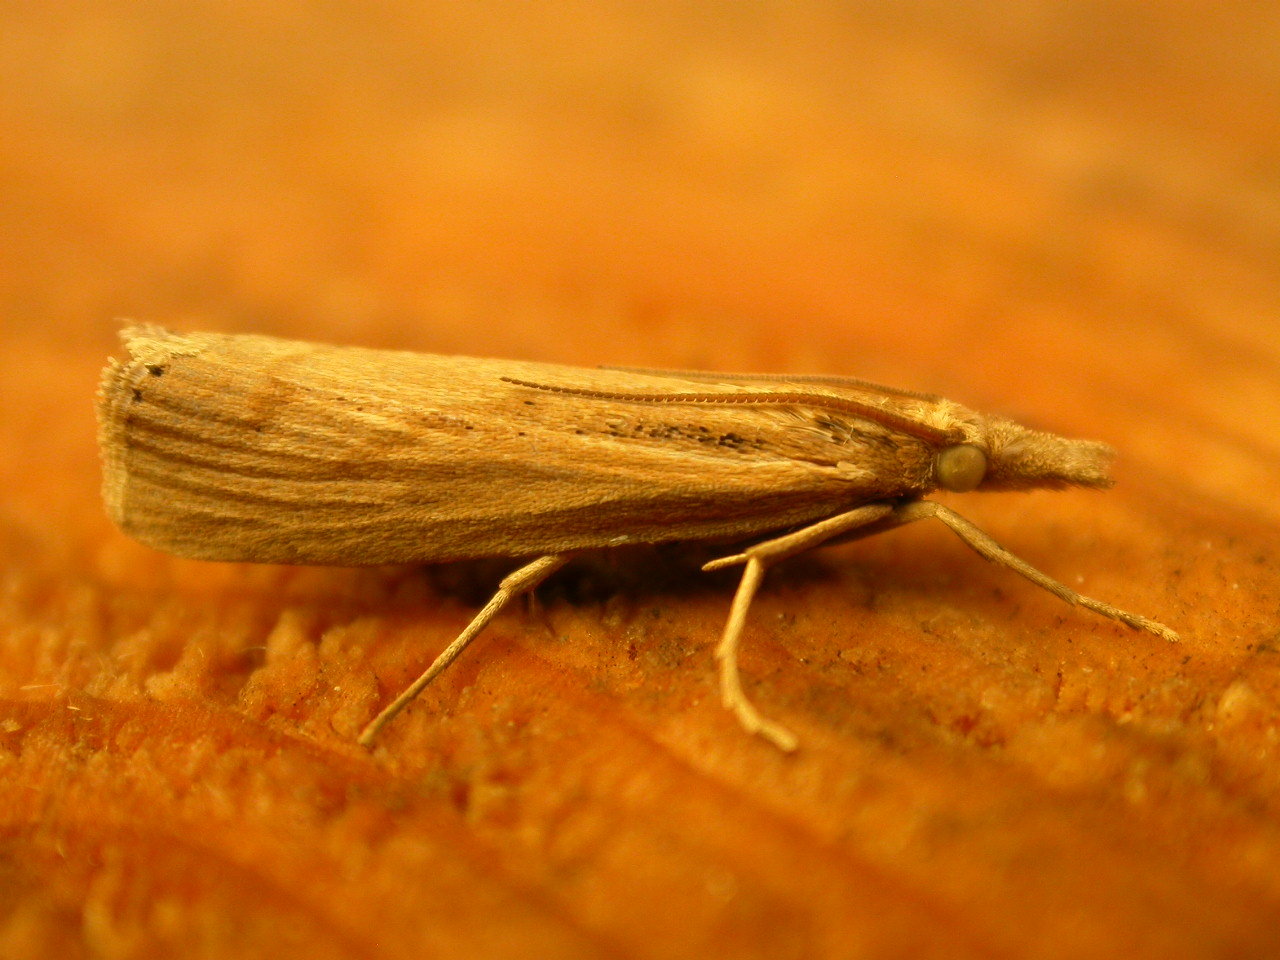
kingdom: Animalia
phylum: Arthropoda
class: Insecta
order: Lepidoptera
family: Crambidae
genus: Agriphila
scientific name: Agriphila inquinatella
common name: Barred grass-veneer
